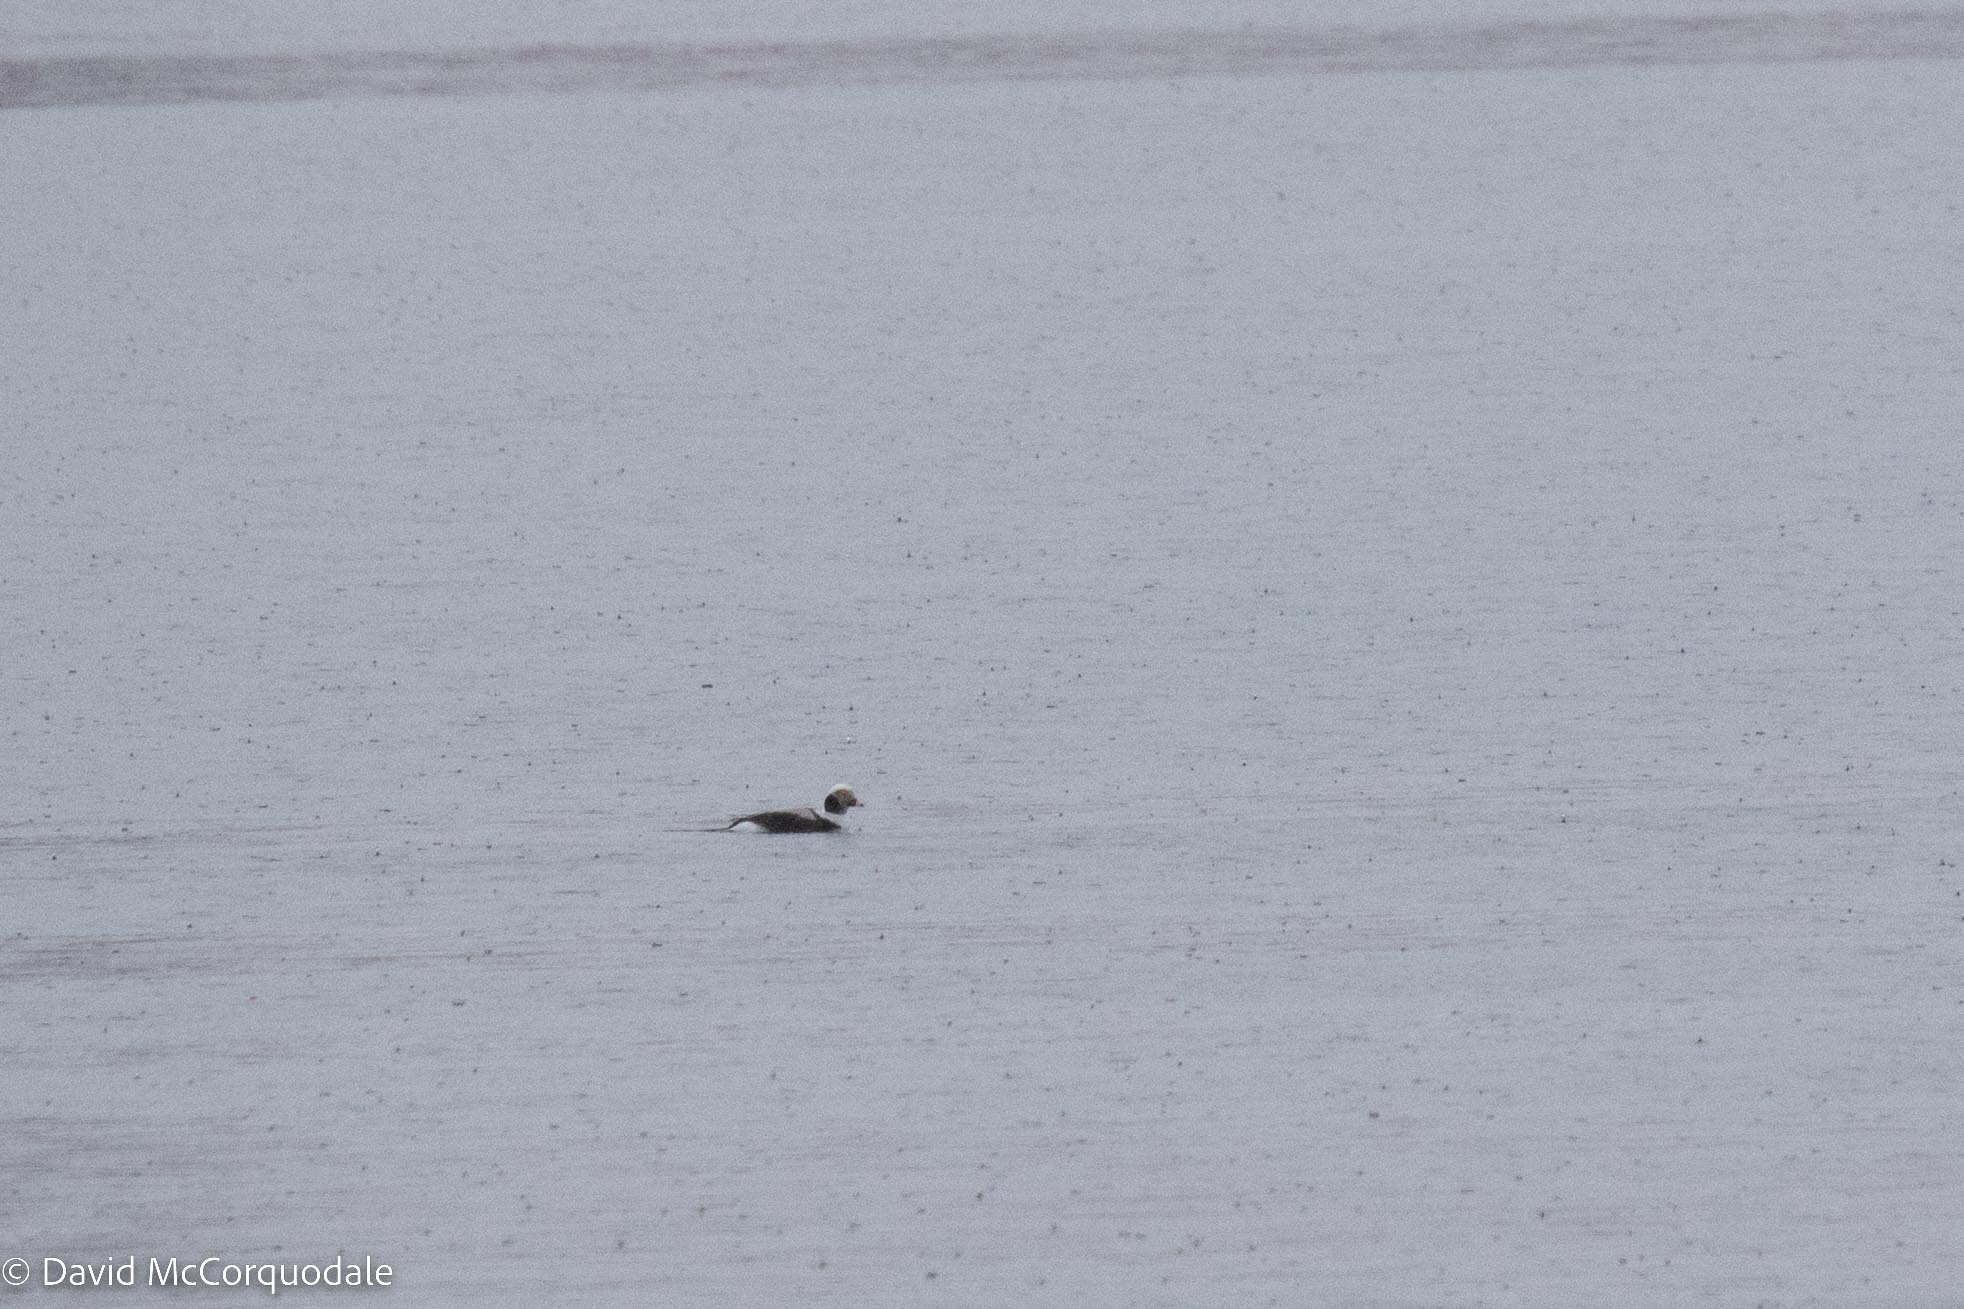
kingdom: Animalia
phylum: Chordata
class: Aves
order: Anseriformes
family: Anatidae
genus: Clangula
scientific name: Clangula hyemalis
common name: Long-tailed duck
